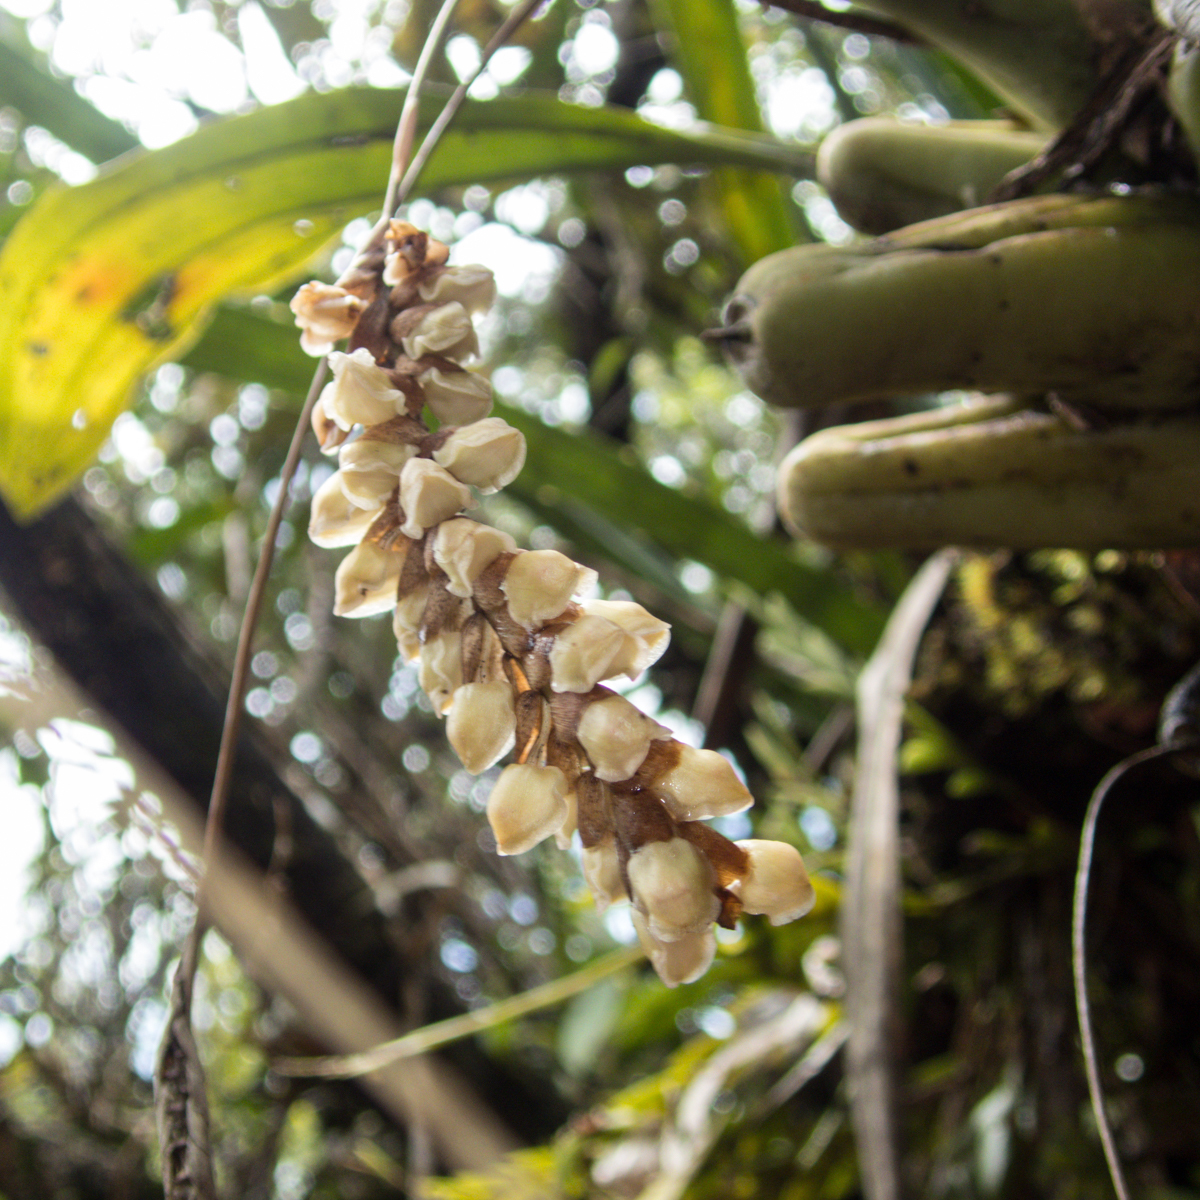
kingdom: Plantae
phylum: Tracheophyta
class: Liliopsida
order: Asparagales
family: Orchidaceae
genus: Pholidota
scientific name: Pholidota imbricata
